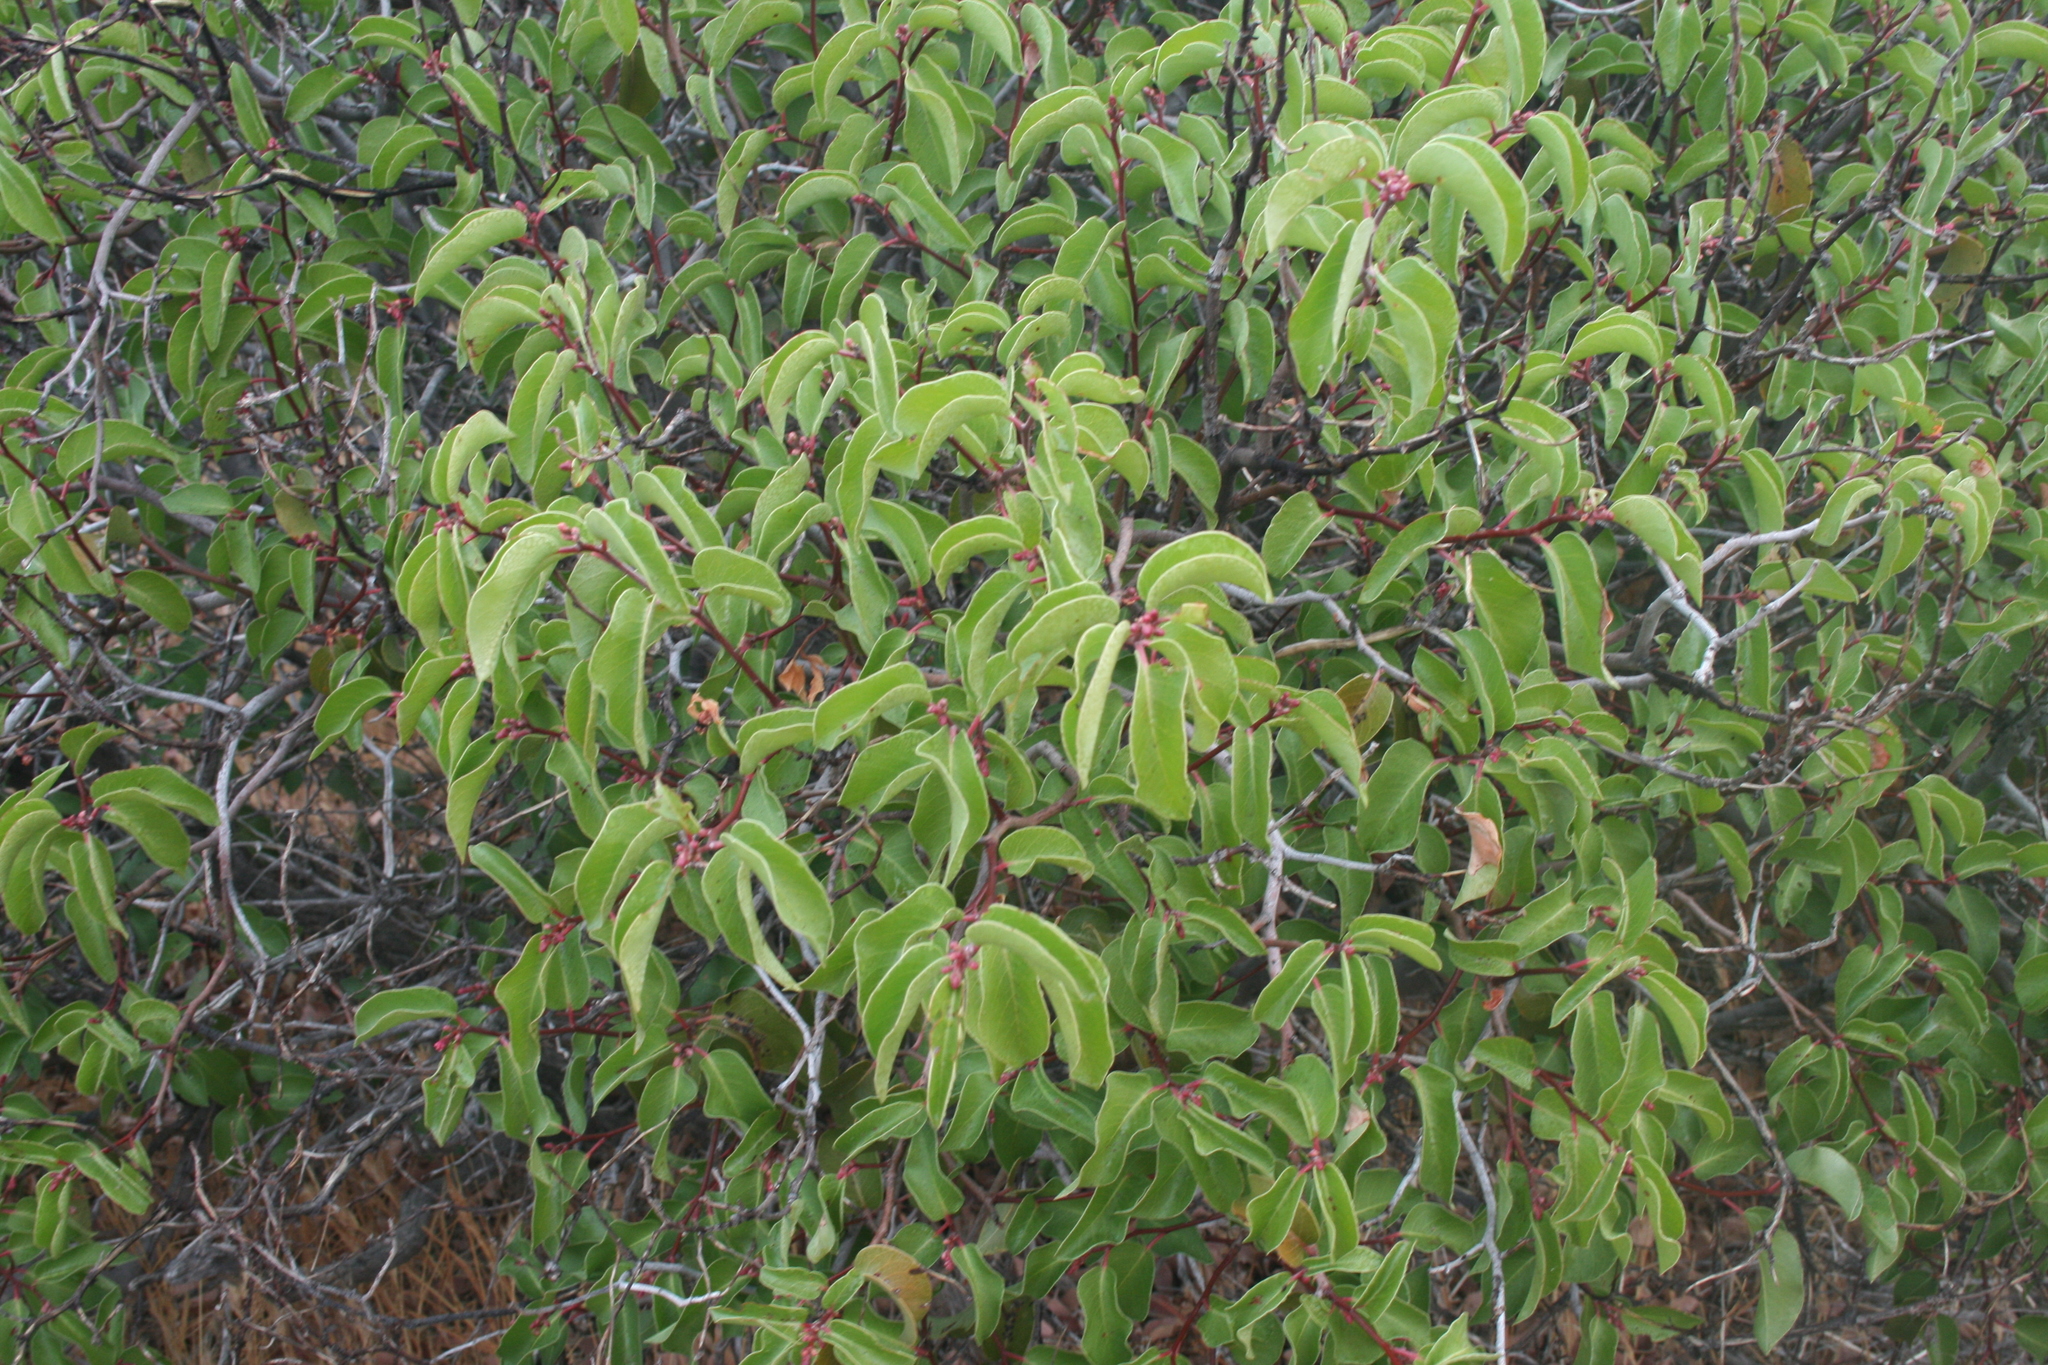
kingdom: Plantae
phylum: Tracheophyta
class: Magnoliopsida
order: Sapindales
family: Anacardiaceae
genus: Rhus
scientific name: Rhus ovata
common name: Sugar sumac
